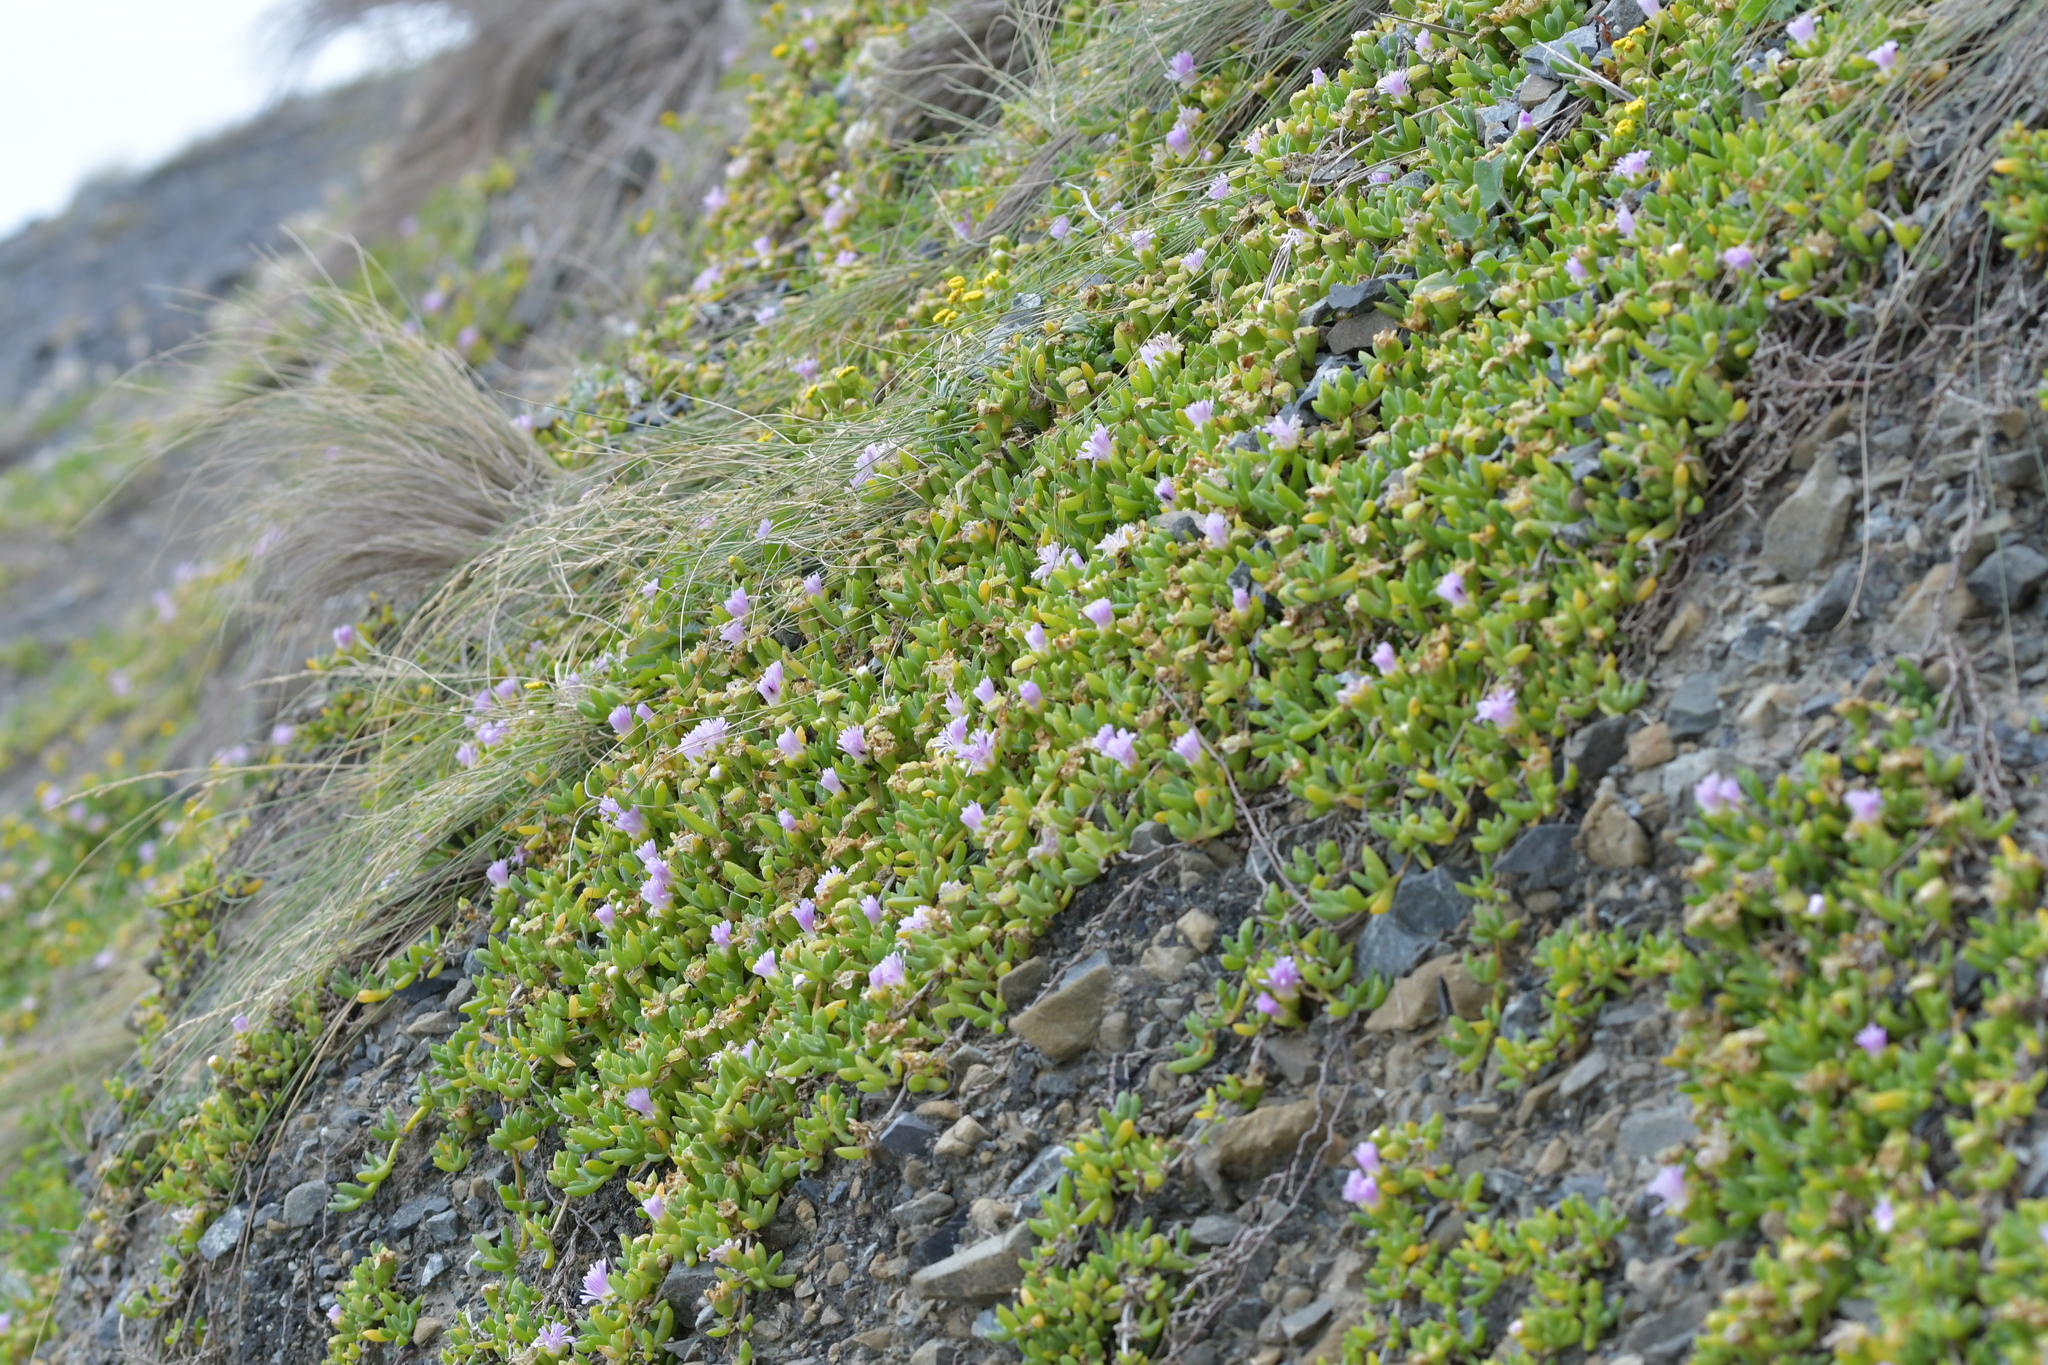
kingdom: Plantae
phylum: Tracheophyta
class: Magnoliopsida
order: Caryophyllales
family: Aizoaceae
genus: Disphyma
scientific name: Disphyma australe
